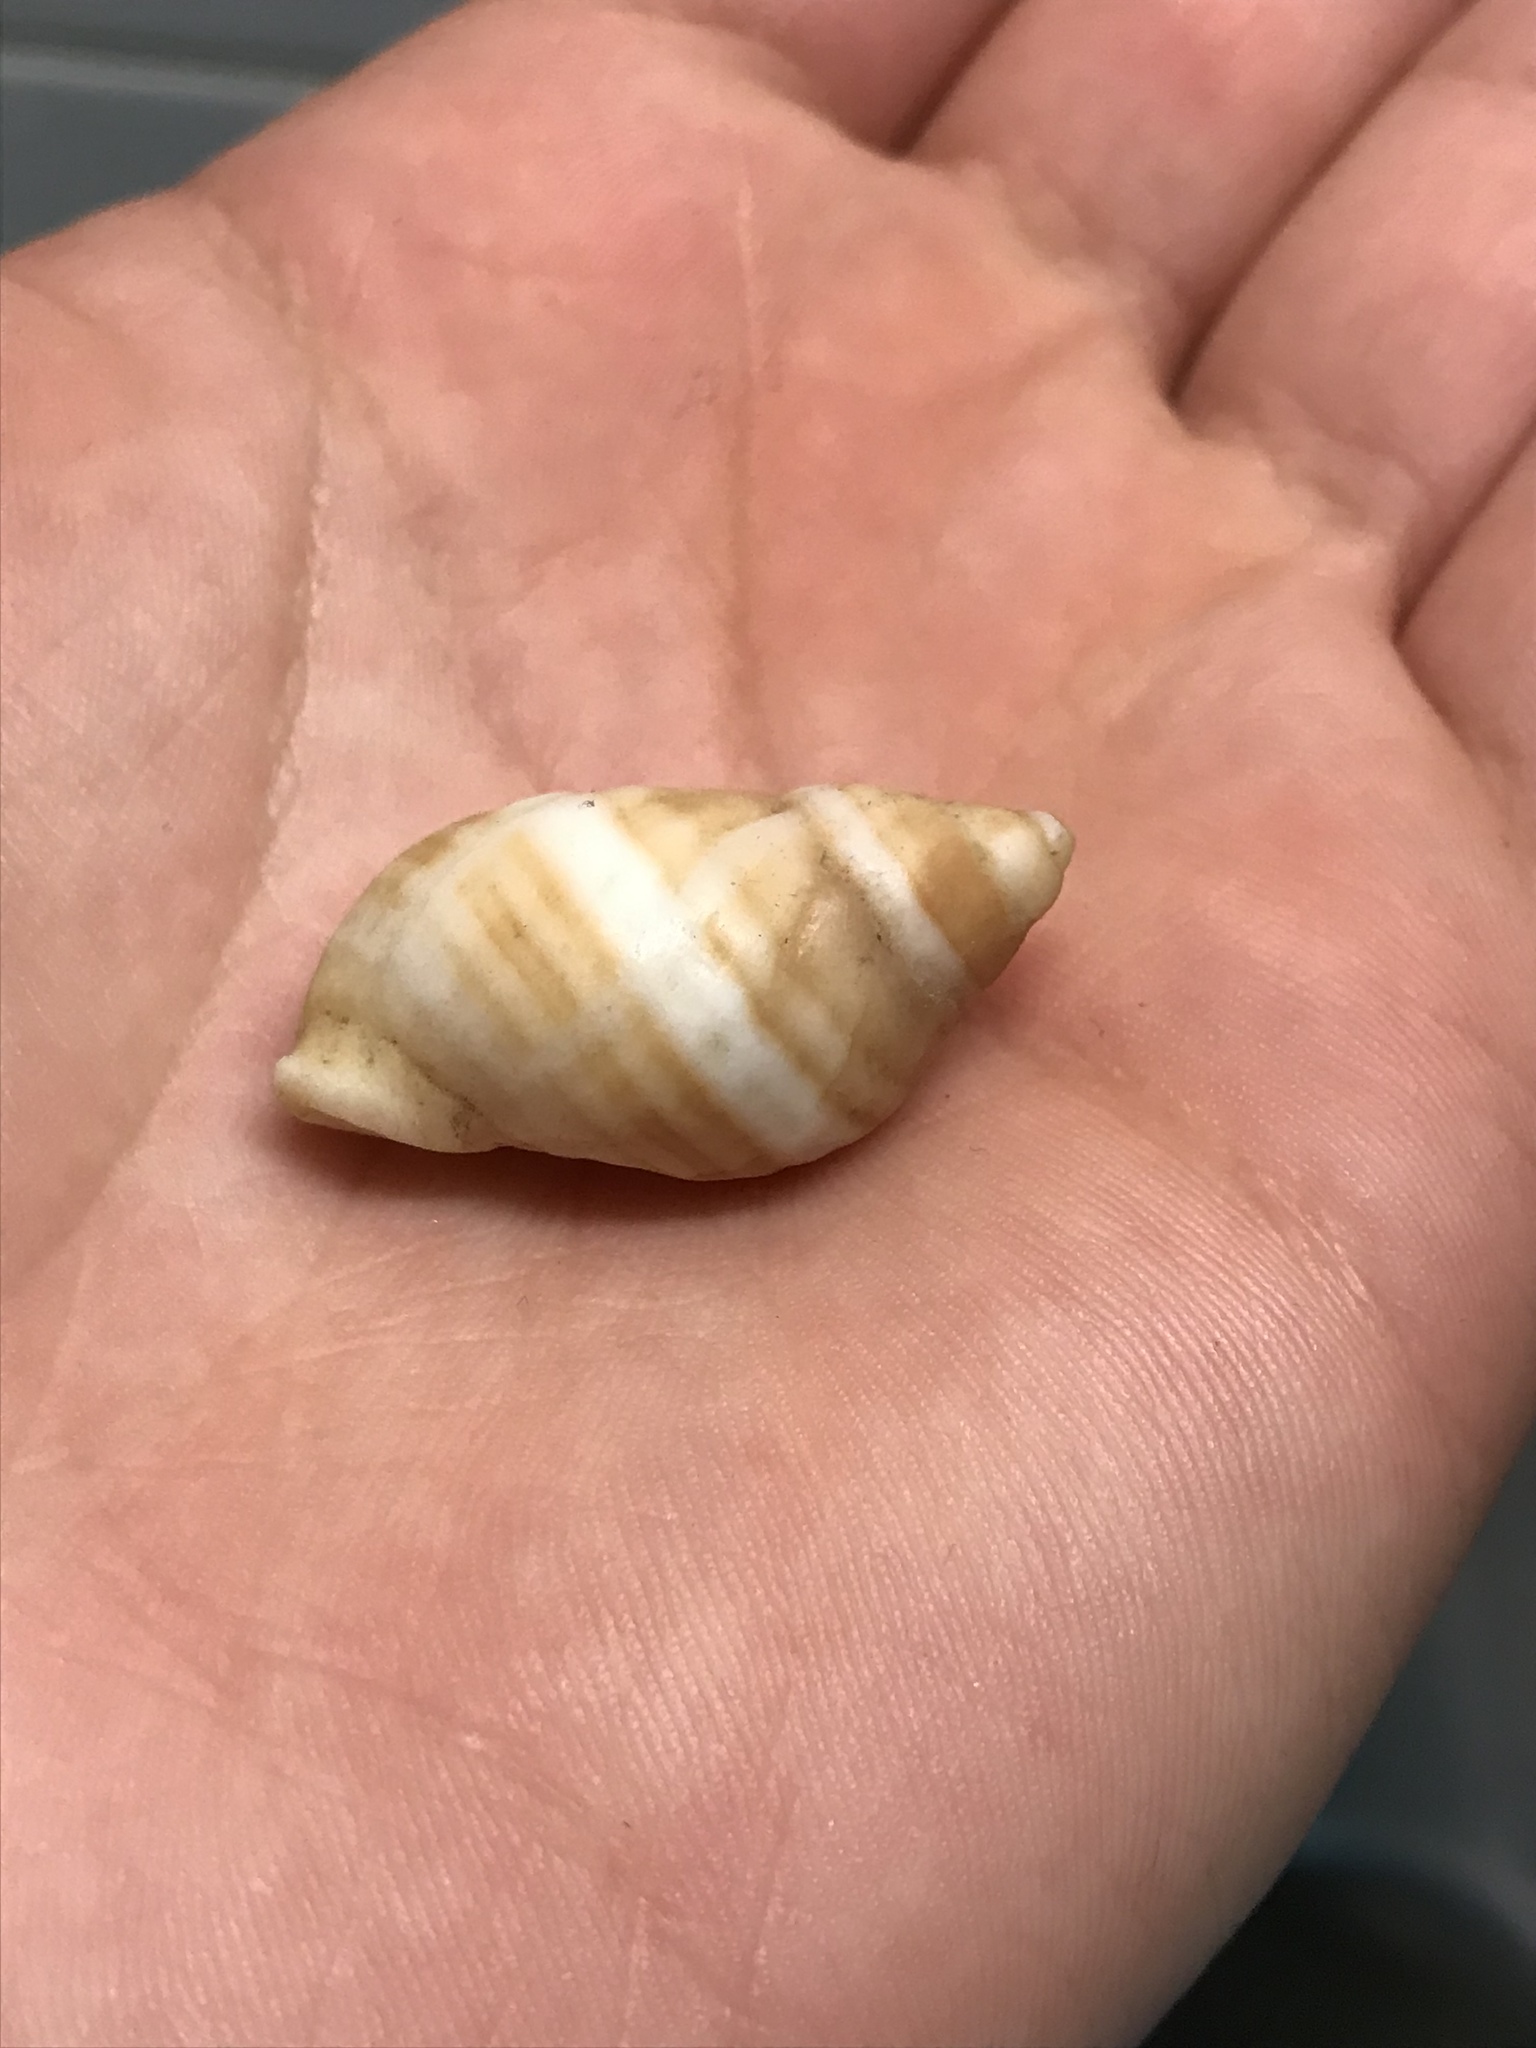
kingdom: Animalia
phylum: Mollusca
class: Gastropoda
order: Neogastropoda
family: Muricidae
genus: Nucella
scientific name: Nucella lapillus
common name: Dog whelk
